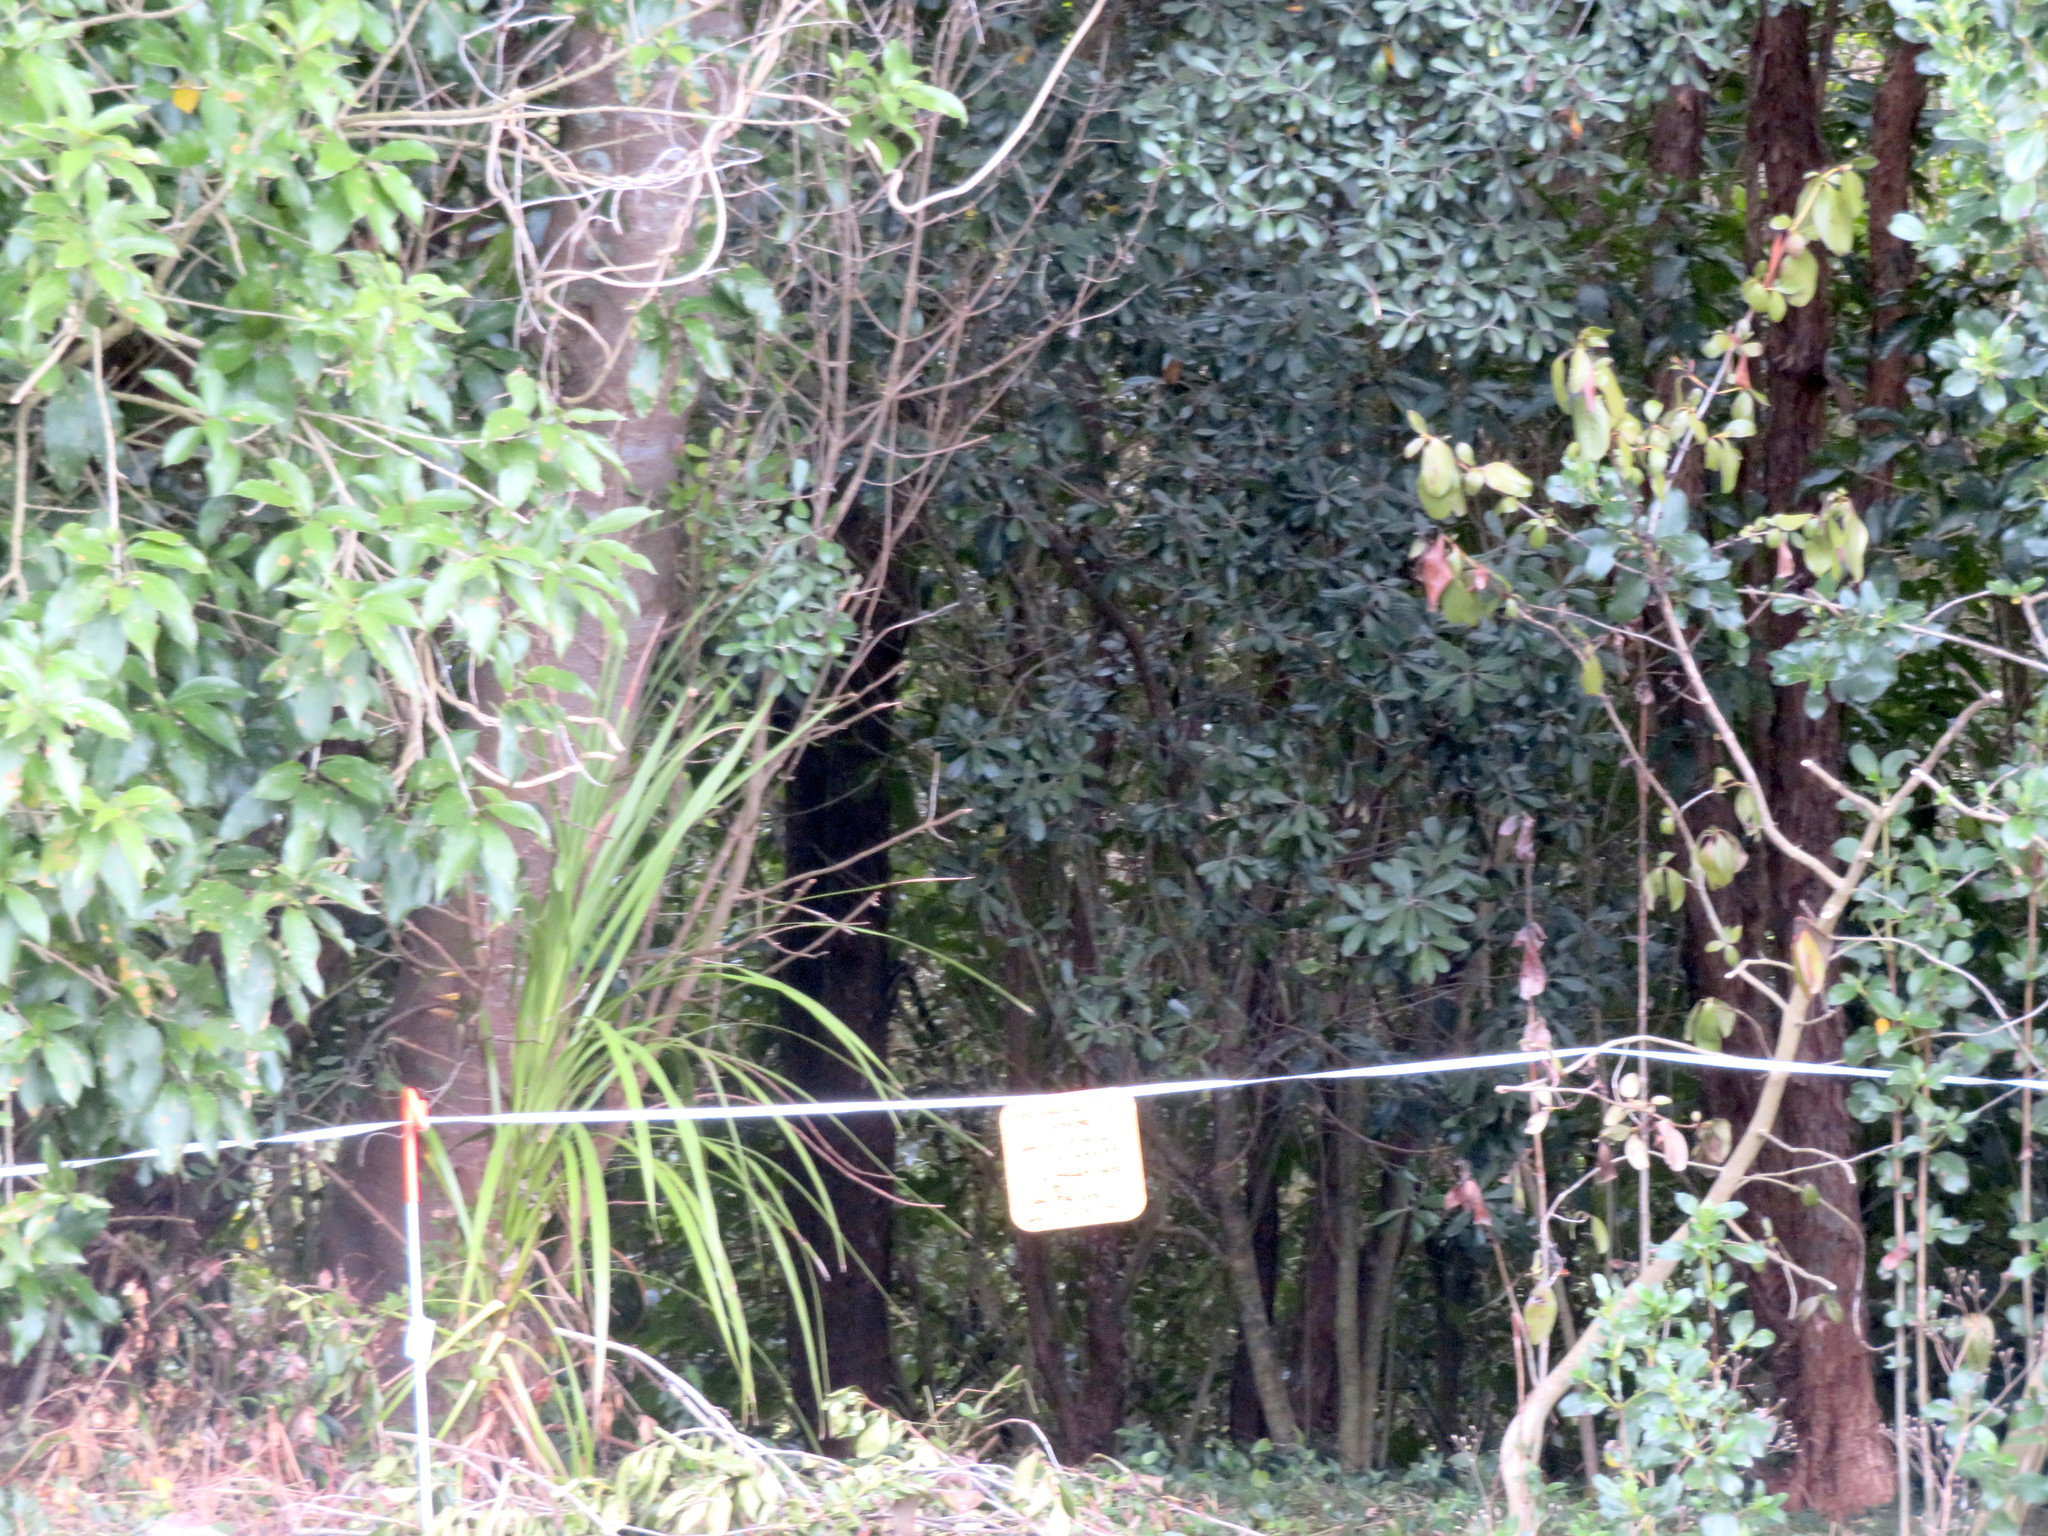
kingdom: Plantae
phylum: Tracheophyta
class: Magnoliopsida
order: Gentianales
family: Rubiaceae
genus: Coprosma
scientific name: Coprosma robusta
